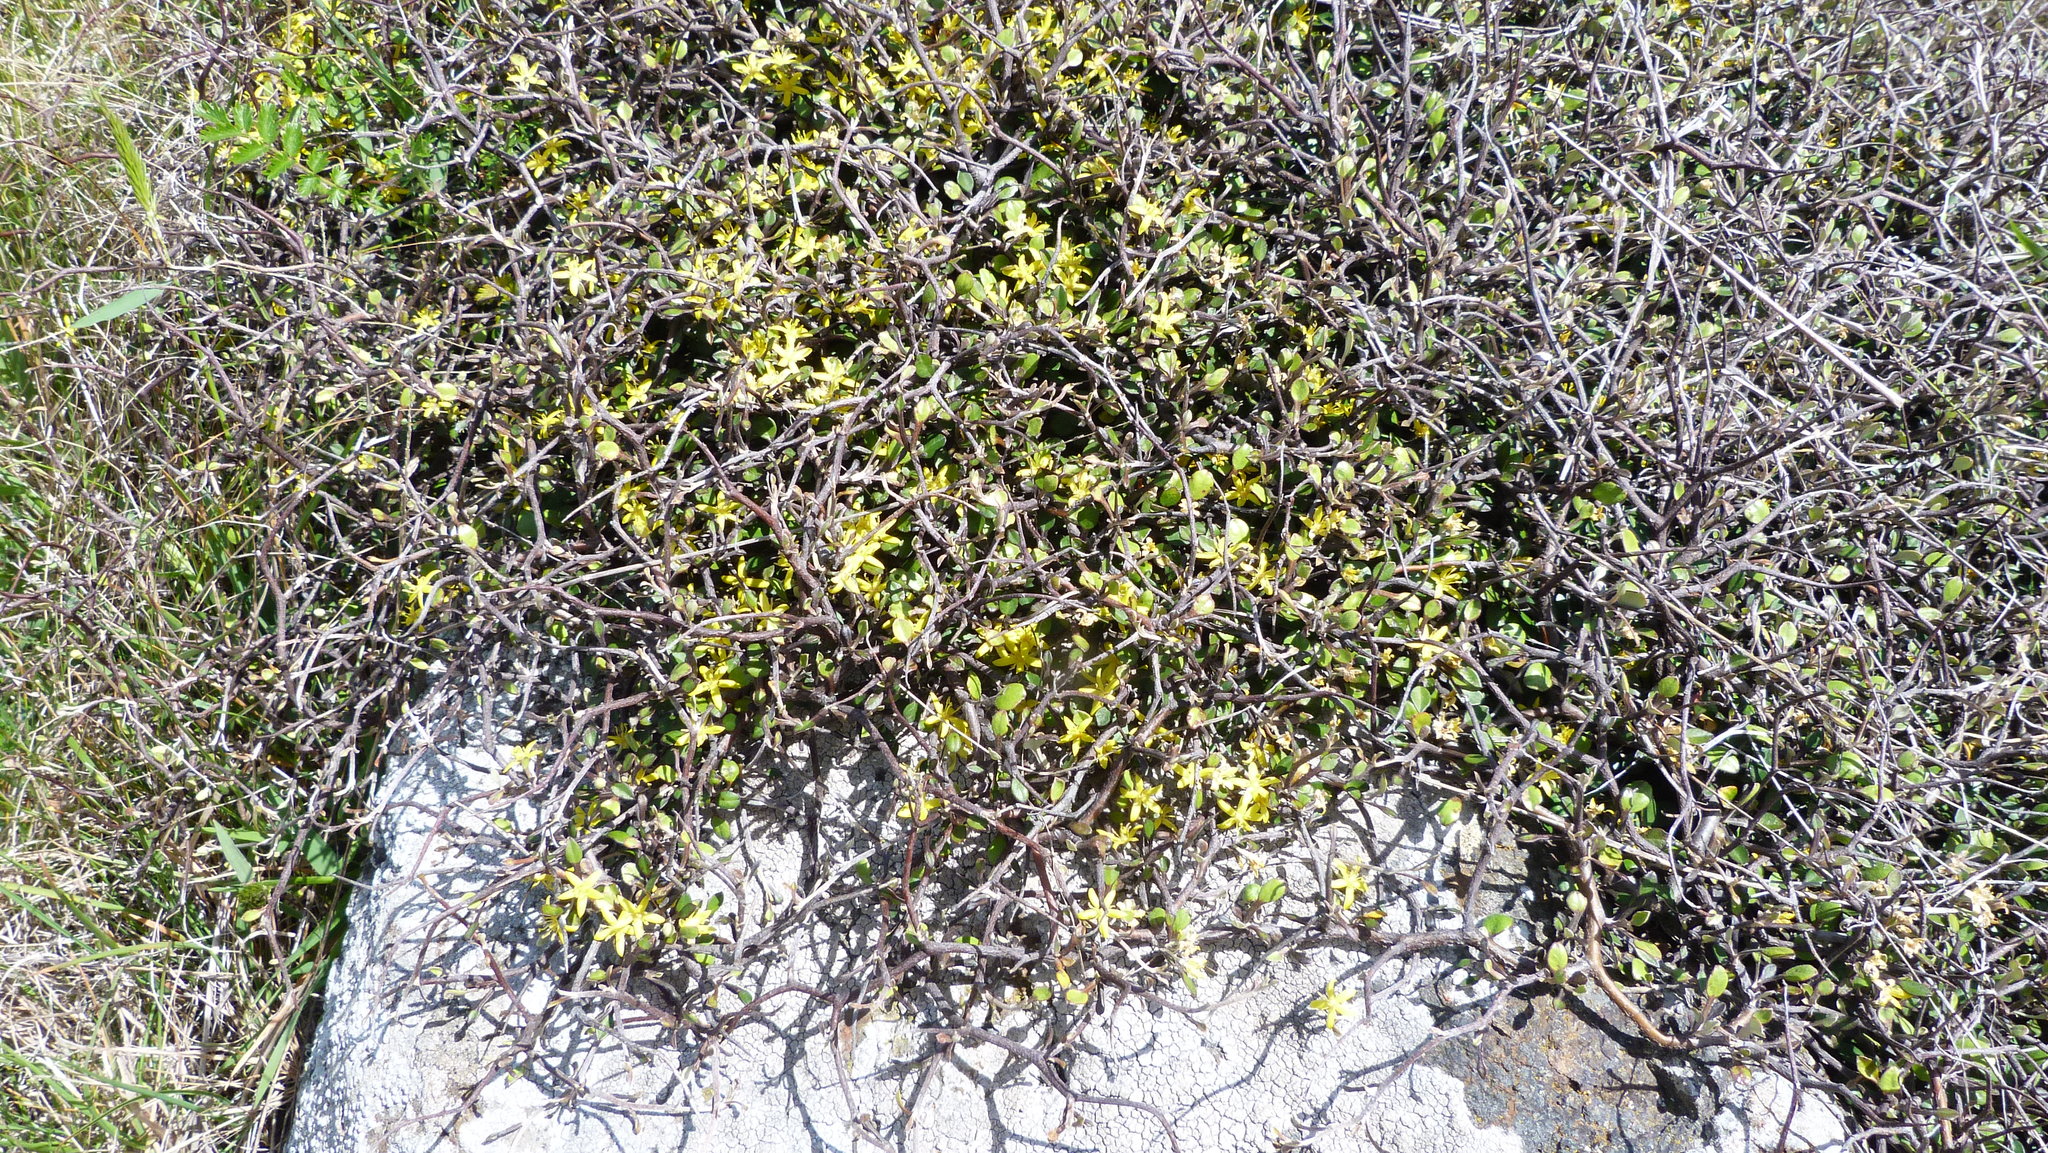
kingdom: Plantae
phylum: Tracheophyta
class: Magnoliopsida
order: Asterales
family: Argophyllaceae
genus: Corokia
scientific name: Corokia cotoneaster
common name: Wire nettingbush
